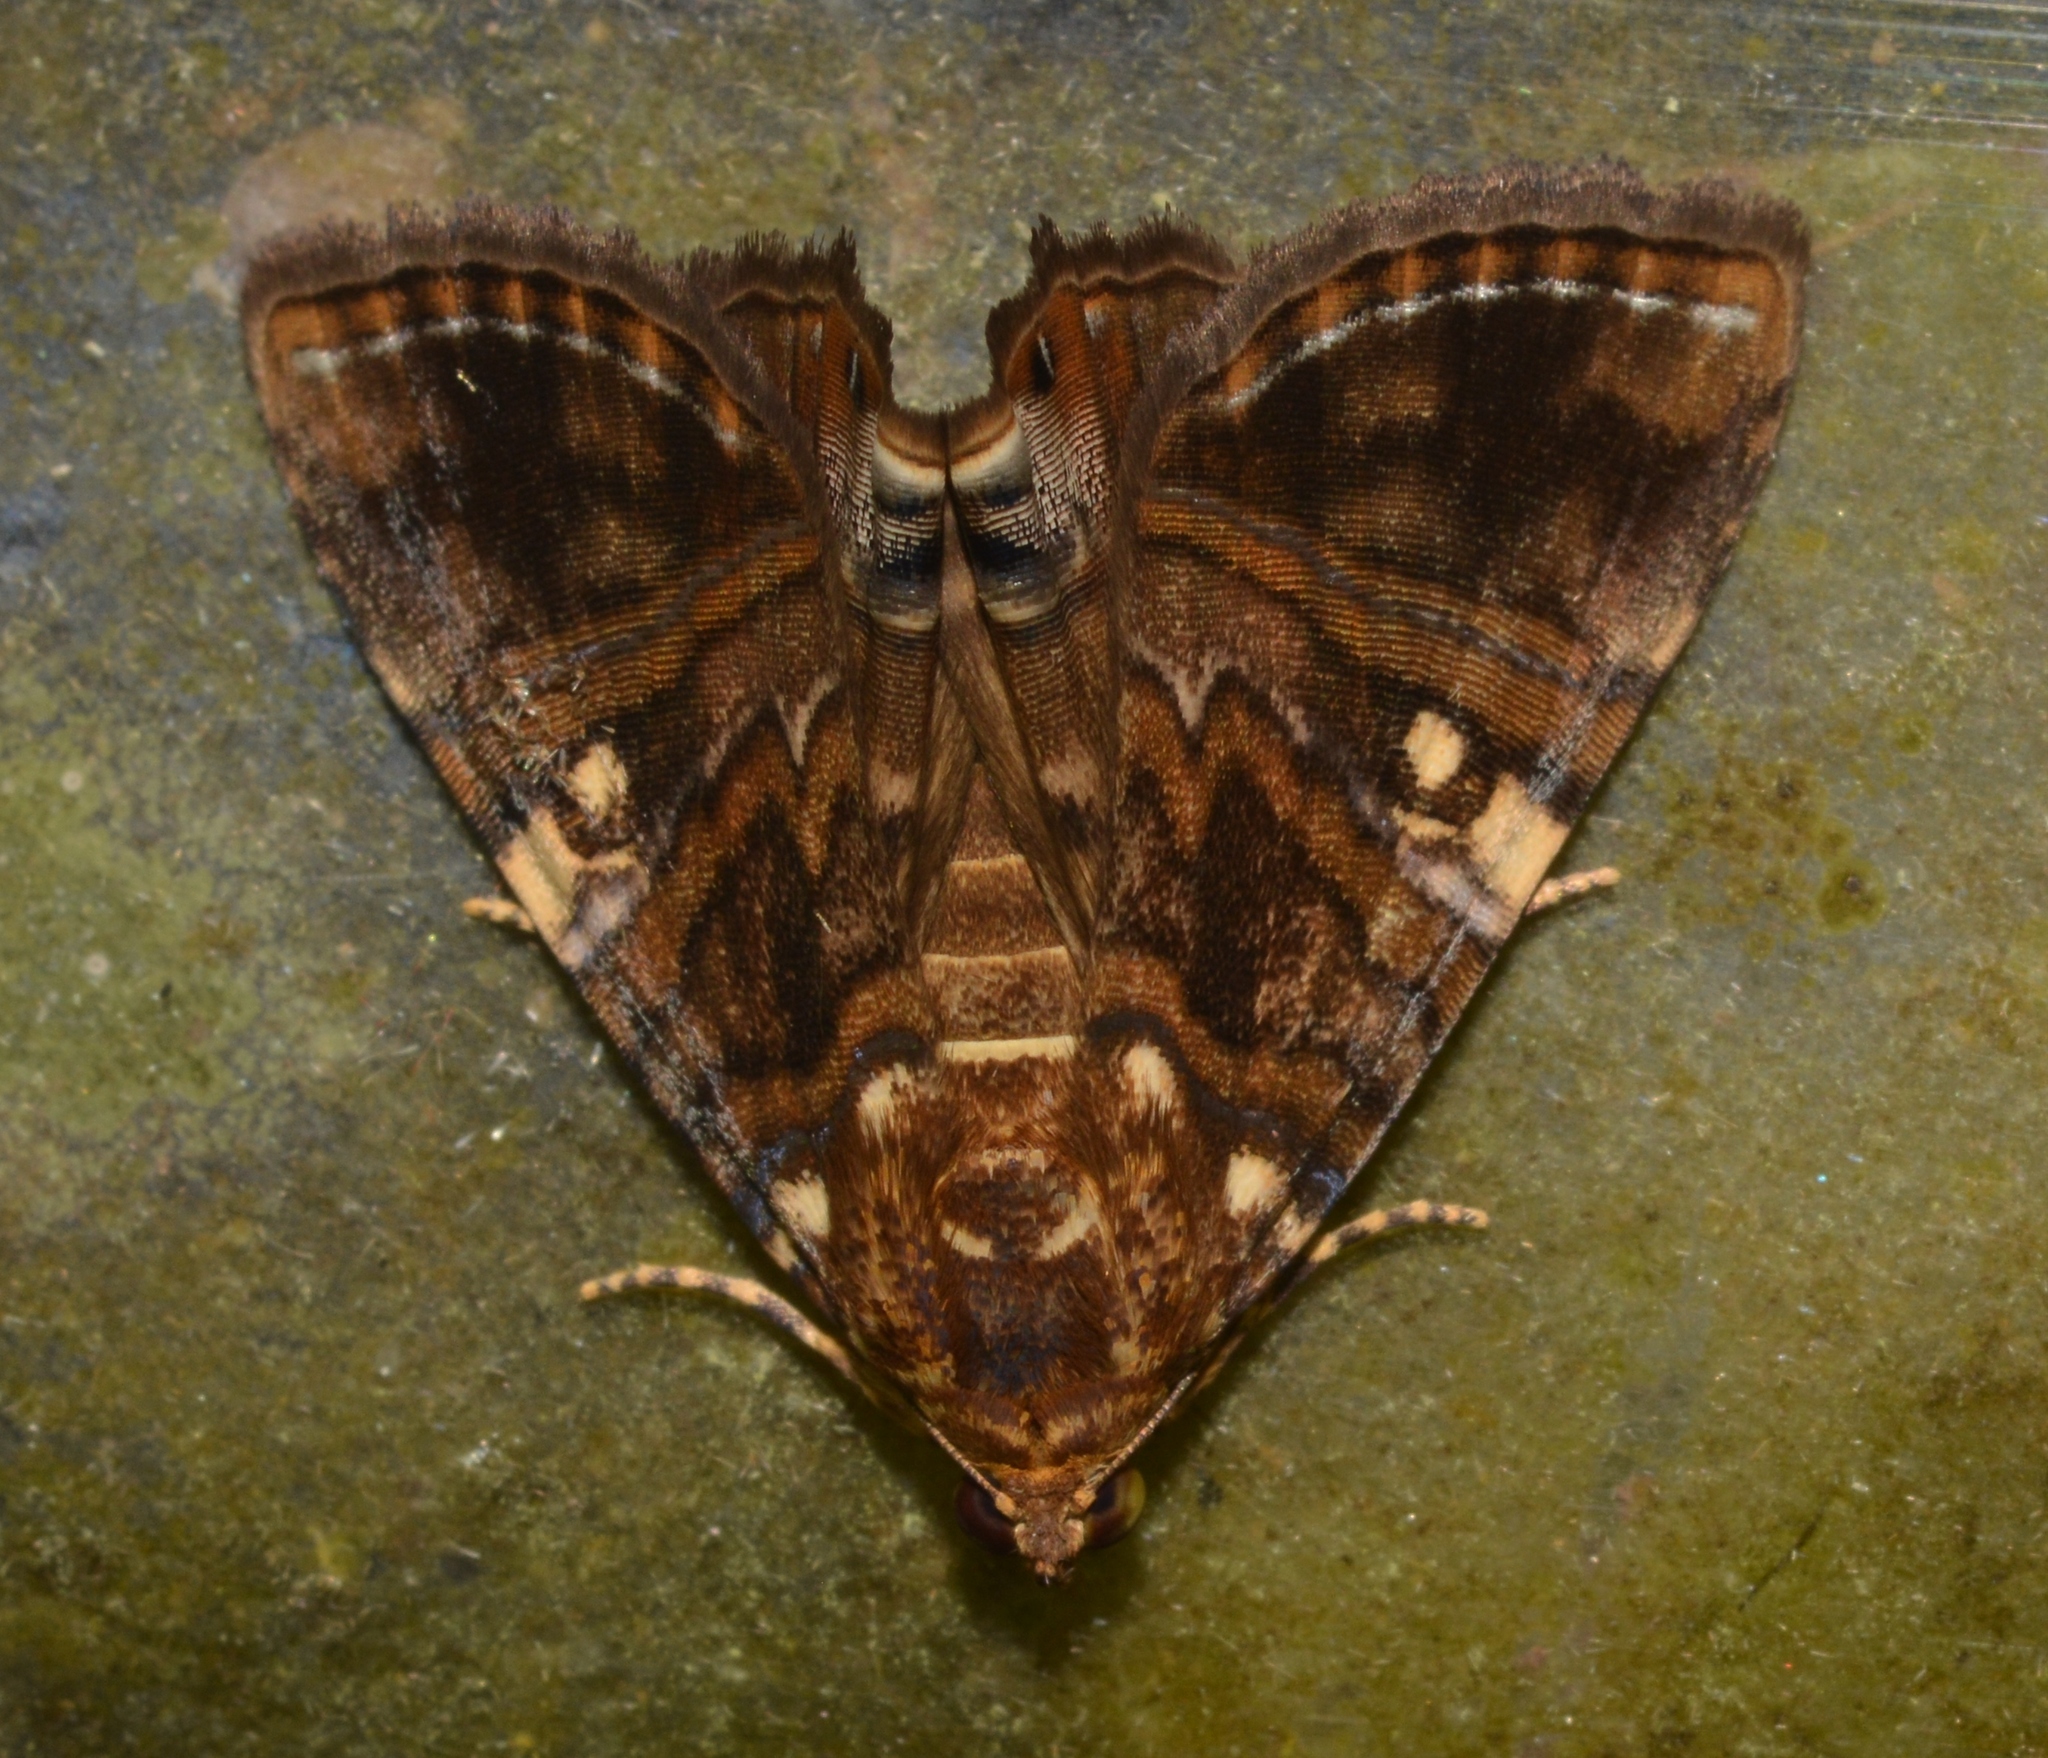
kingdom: Animalia
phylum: Arthropoda
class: Insecta
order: Lepidoptera
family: Erebidae
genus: Eulepidotis
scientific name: Eulepidotis delecta
